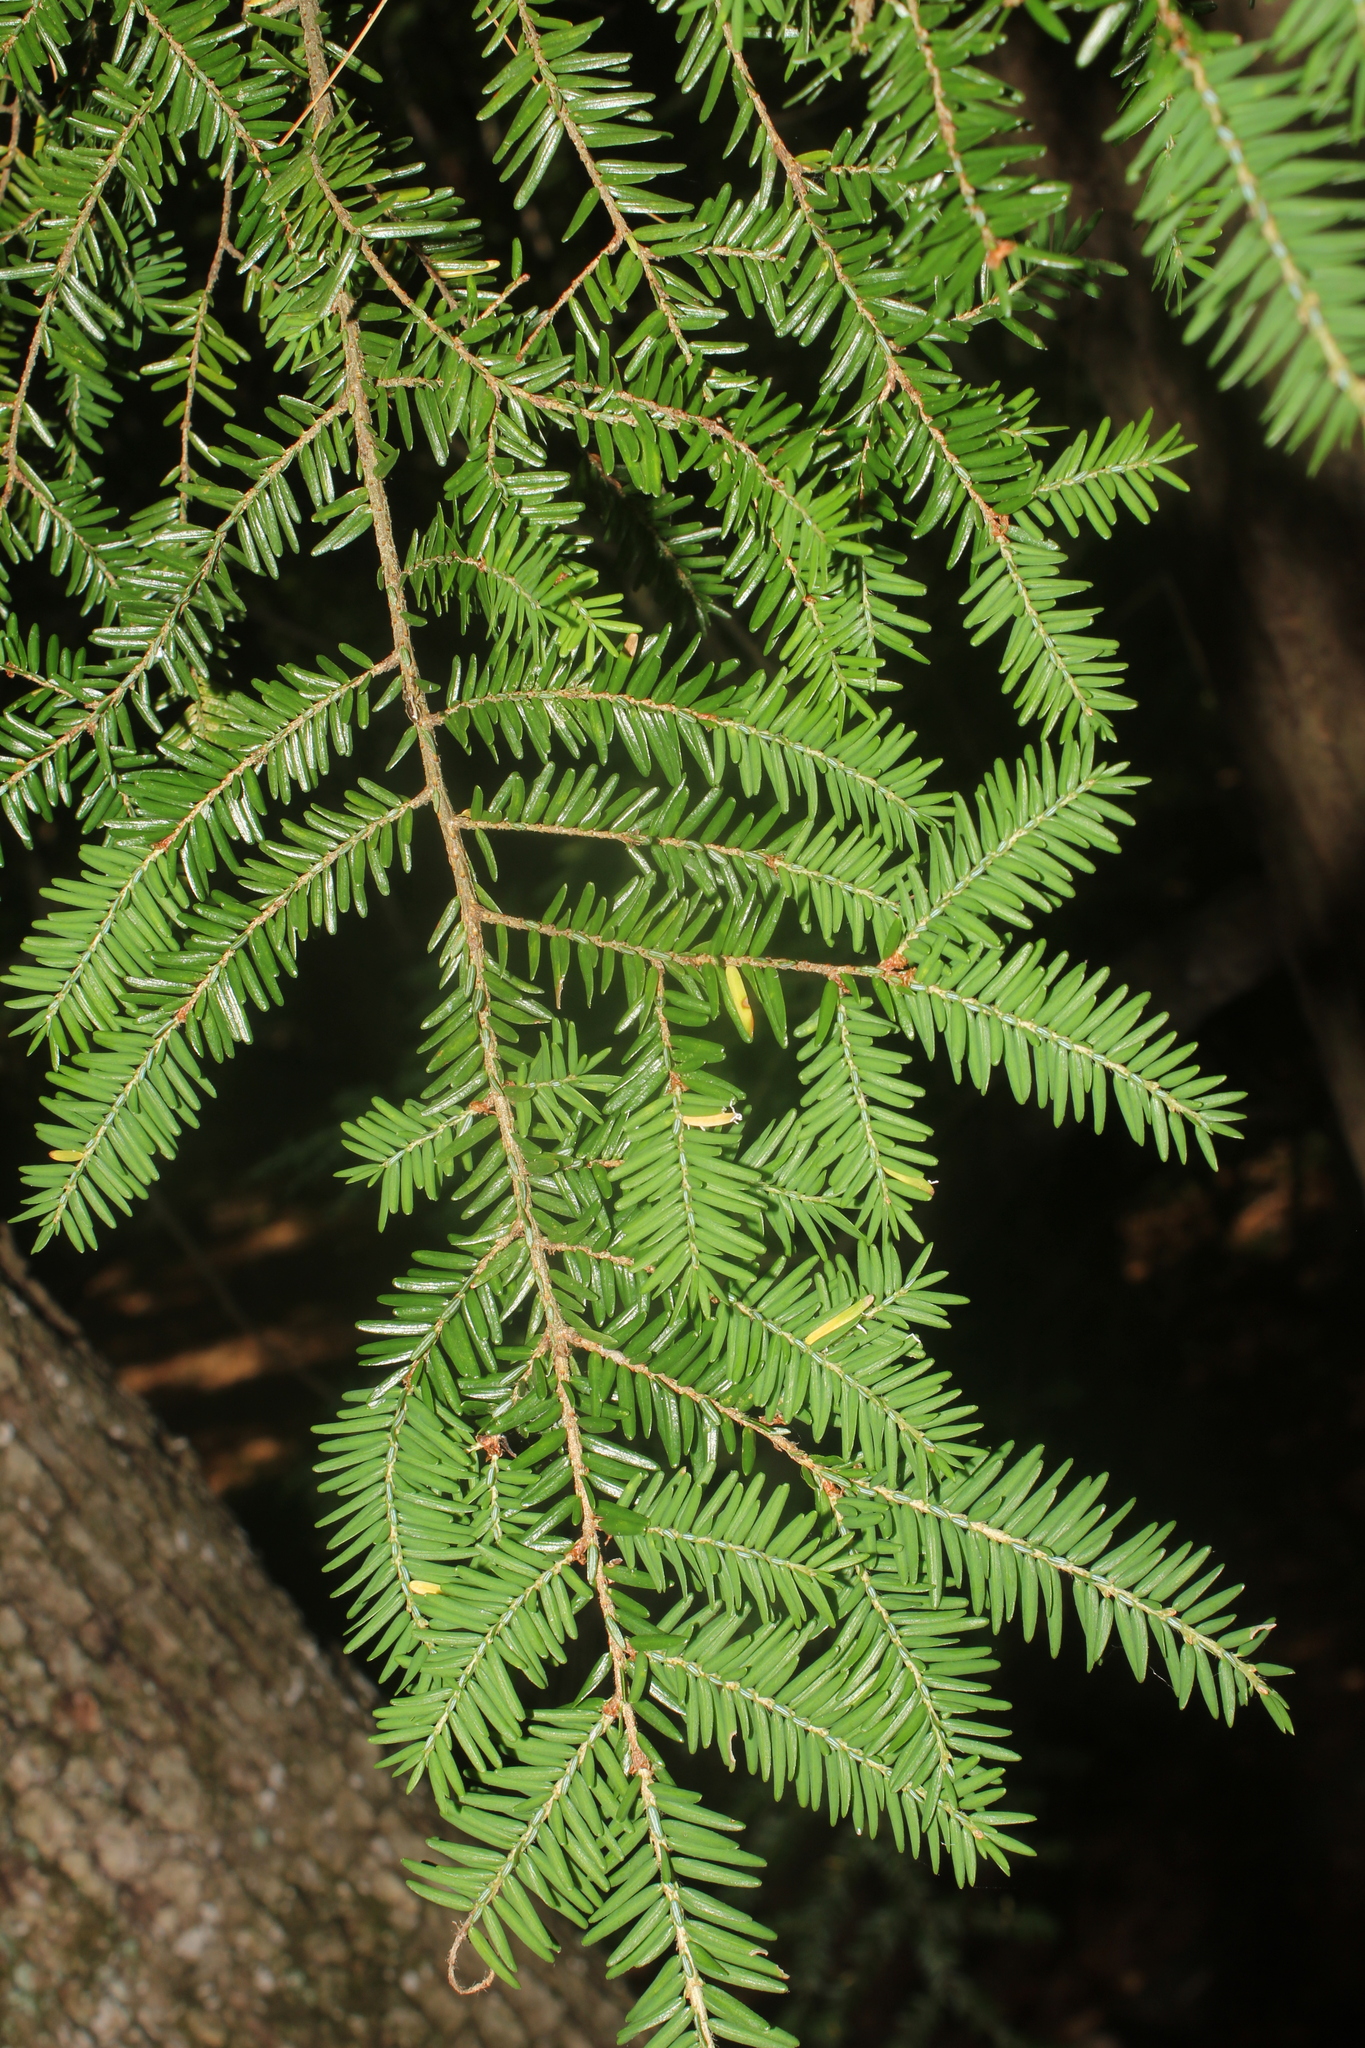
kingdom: Plantae
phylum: Tracheophyta
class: Pinopsida
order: Pinales
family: Pinaceae
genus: Tsuga
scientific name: Tsuga canadensis
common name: Eastern hemlock
